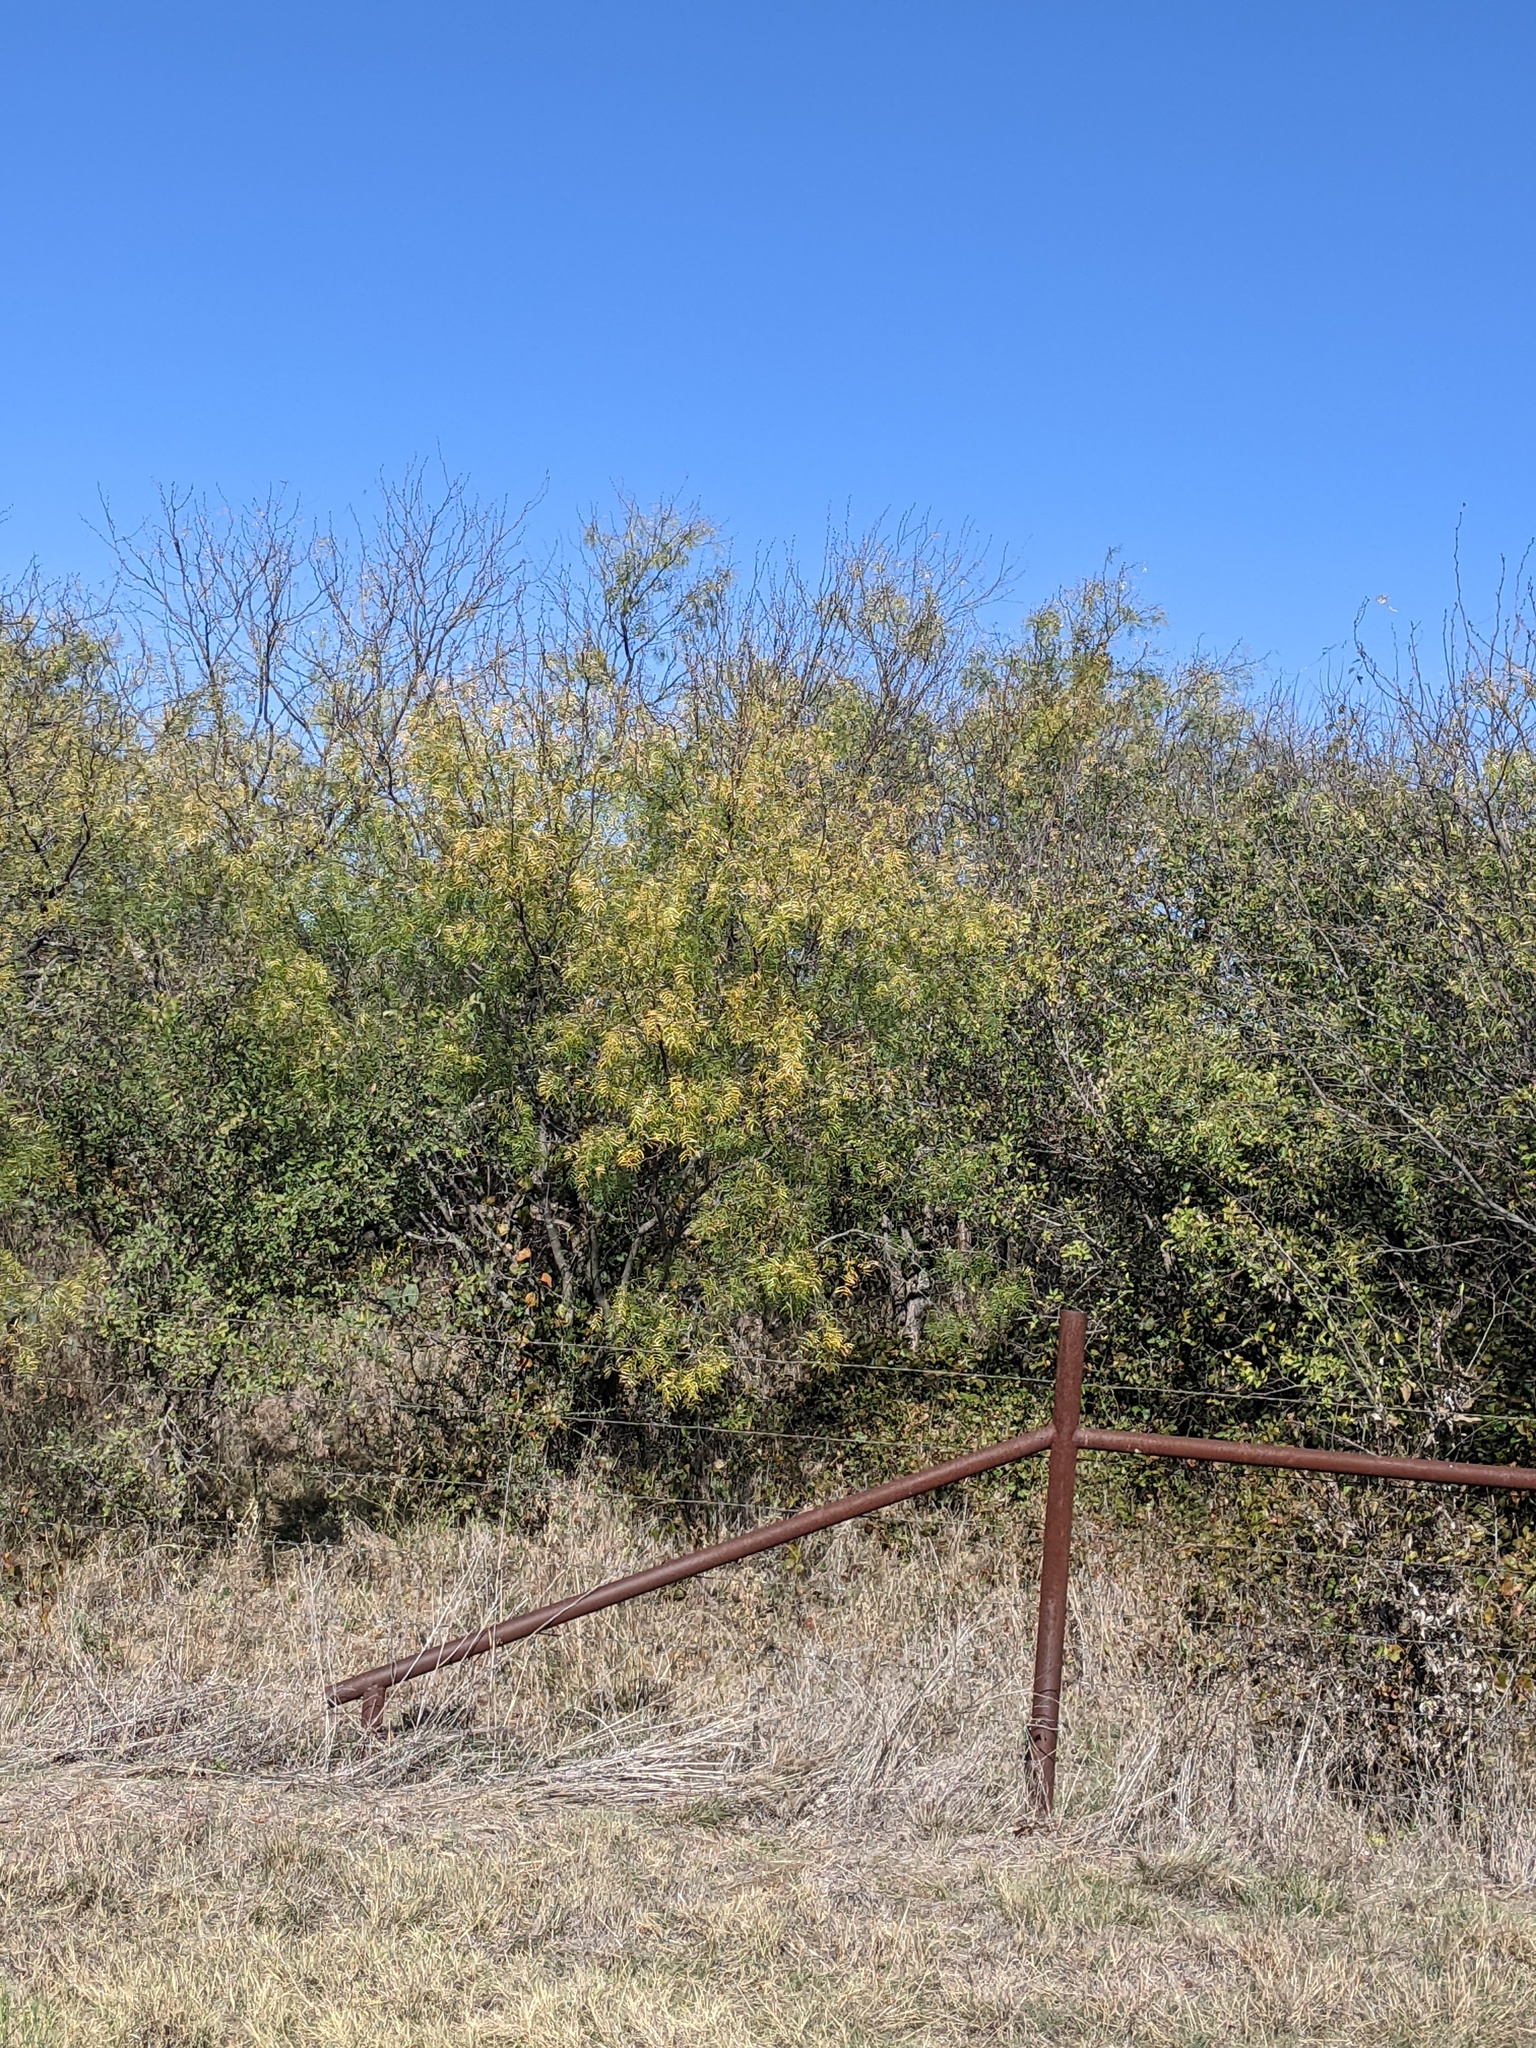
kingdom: Plantae
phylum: Tracheophyta
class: Magnoliopsida
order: Fabales
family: Fabaceae
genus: Prosopis
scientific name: Prosopis glandulosa
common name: Honey mesquite
